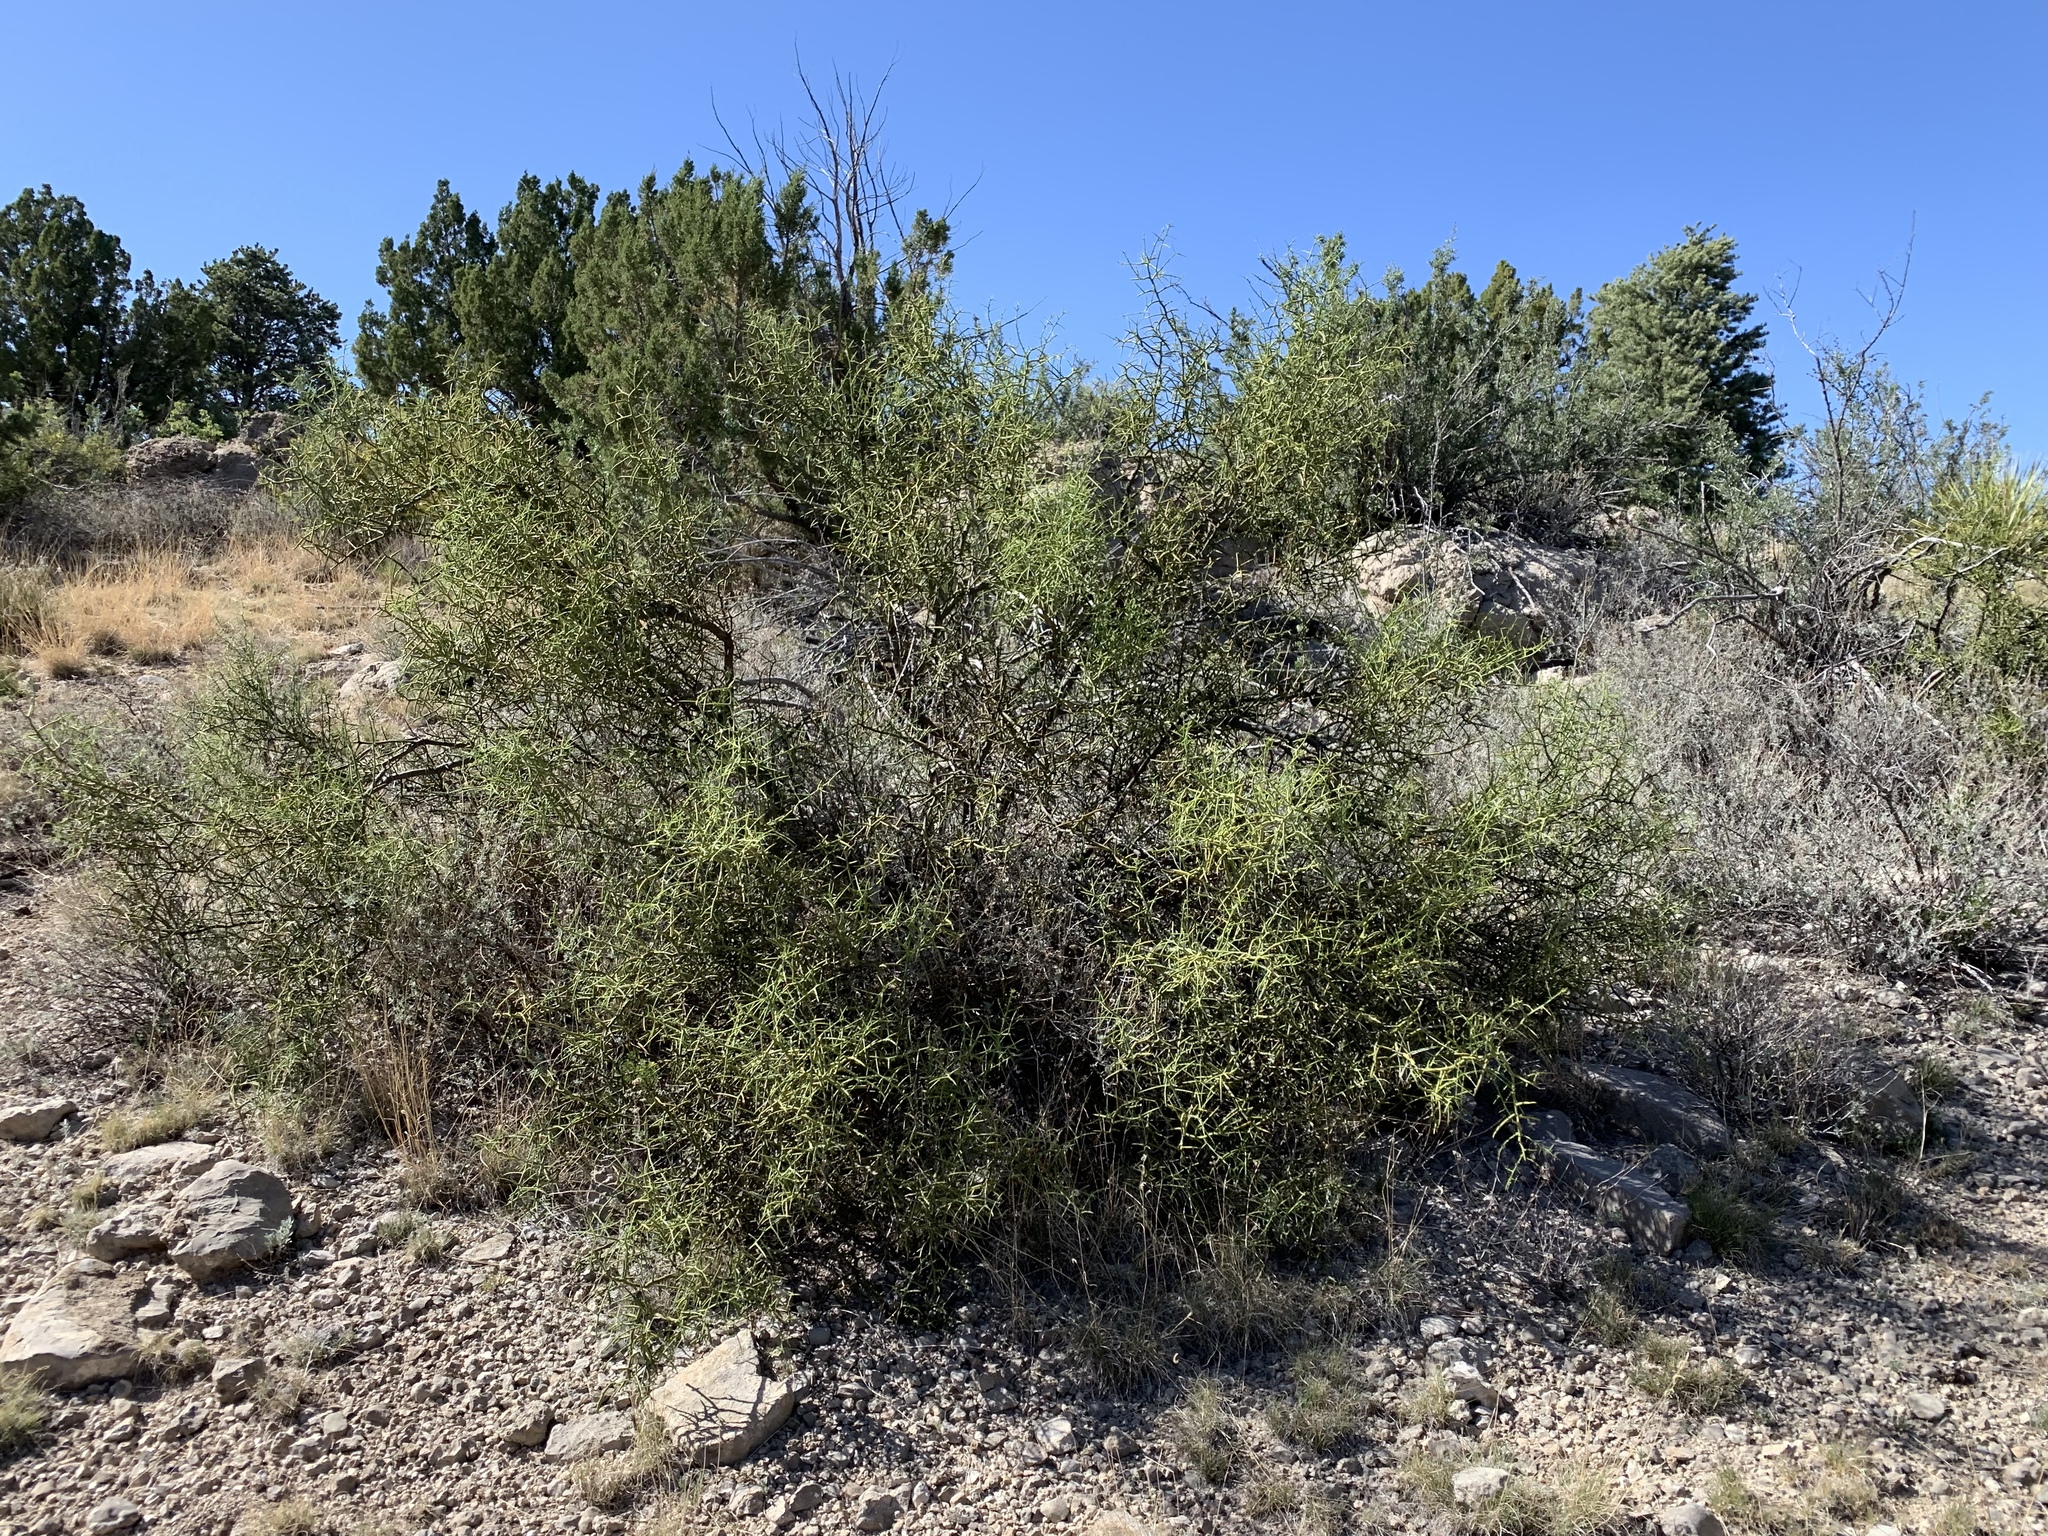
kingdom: Plantae
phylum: Tracheophyta
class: Magnoliopsida
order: Brassicales
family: Koeberliniaceae
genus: Koeberlinia
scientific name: Koeberlinia spinosa
